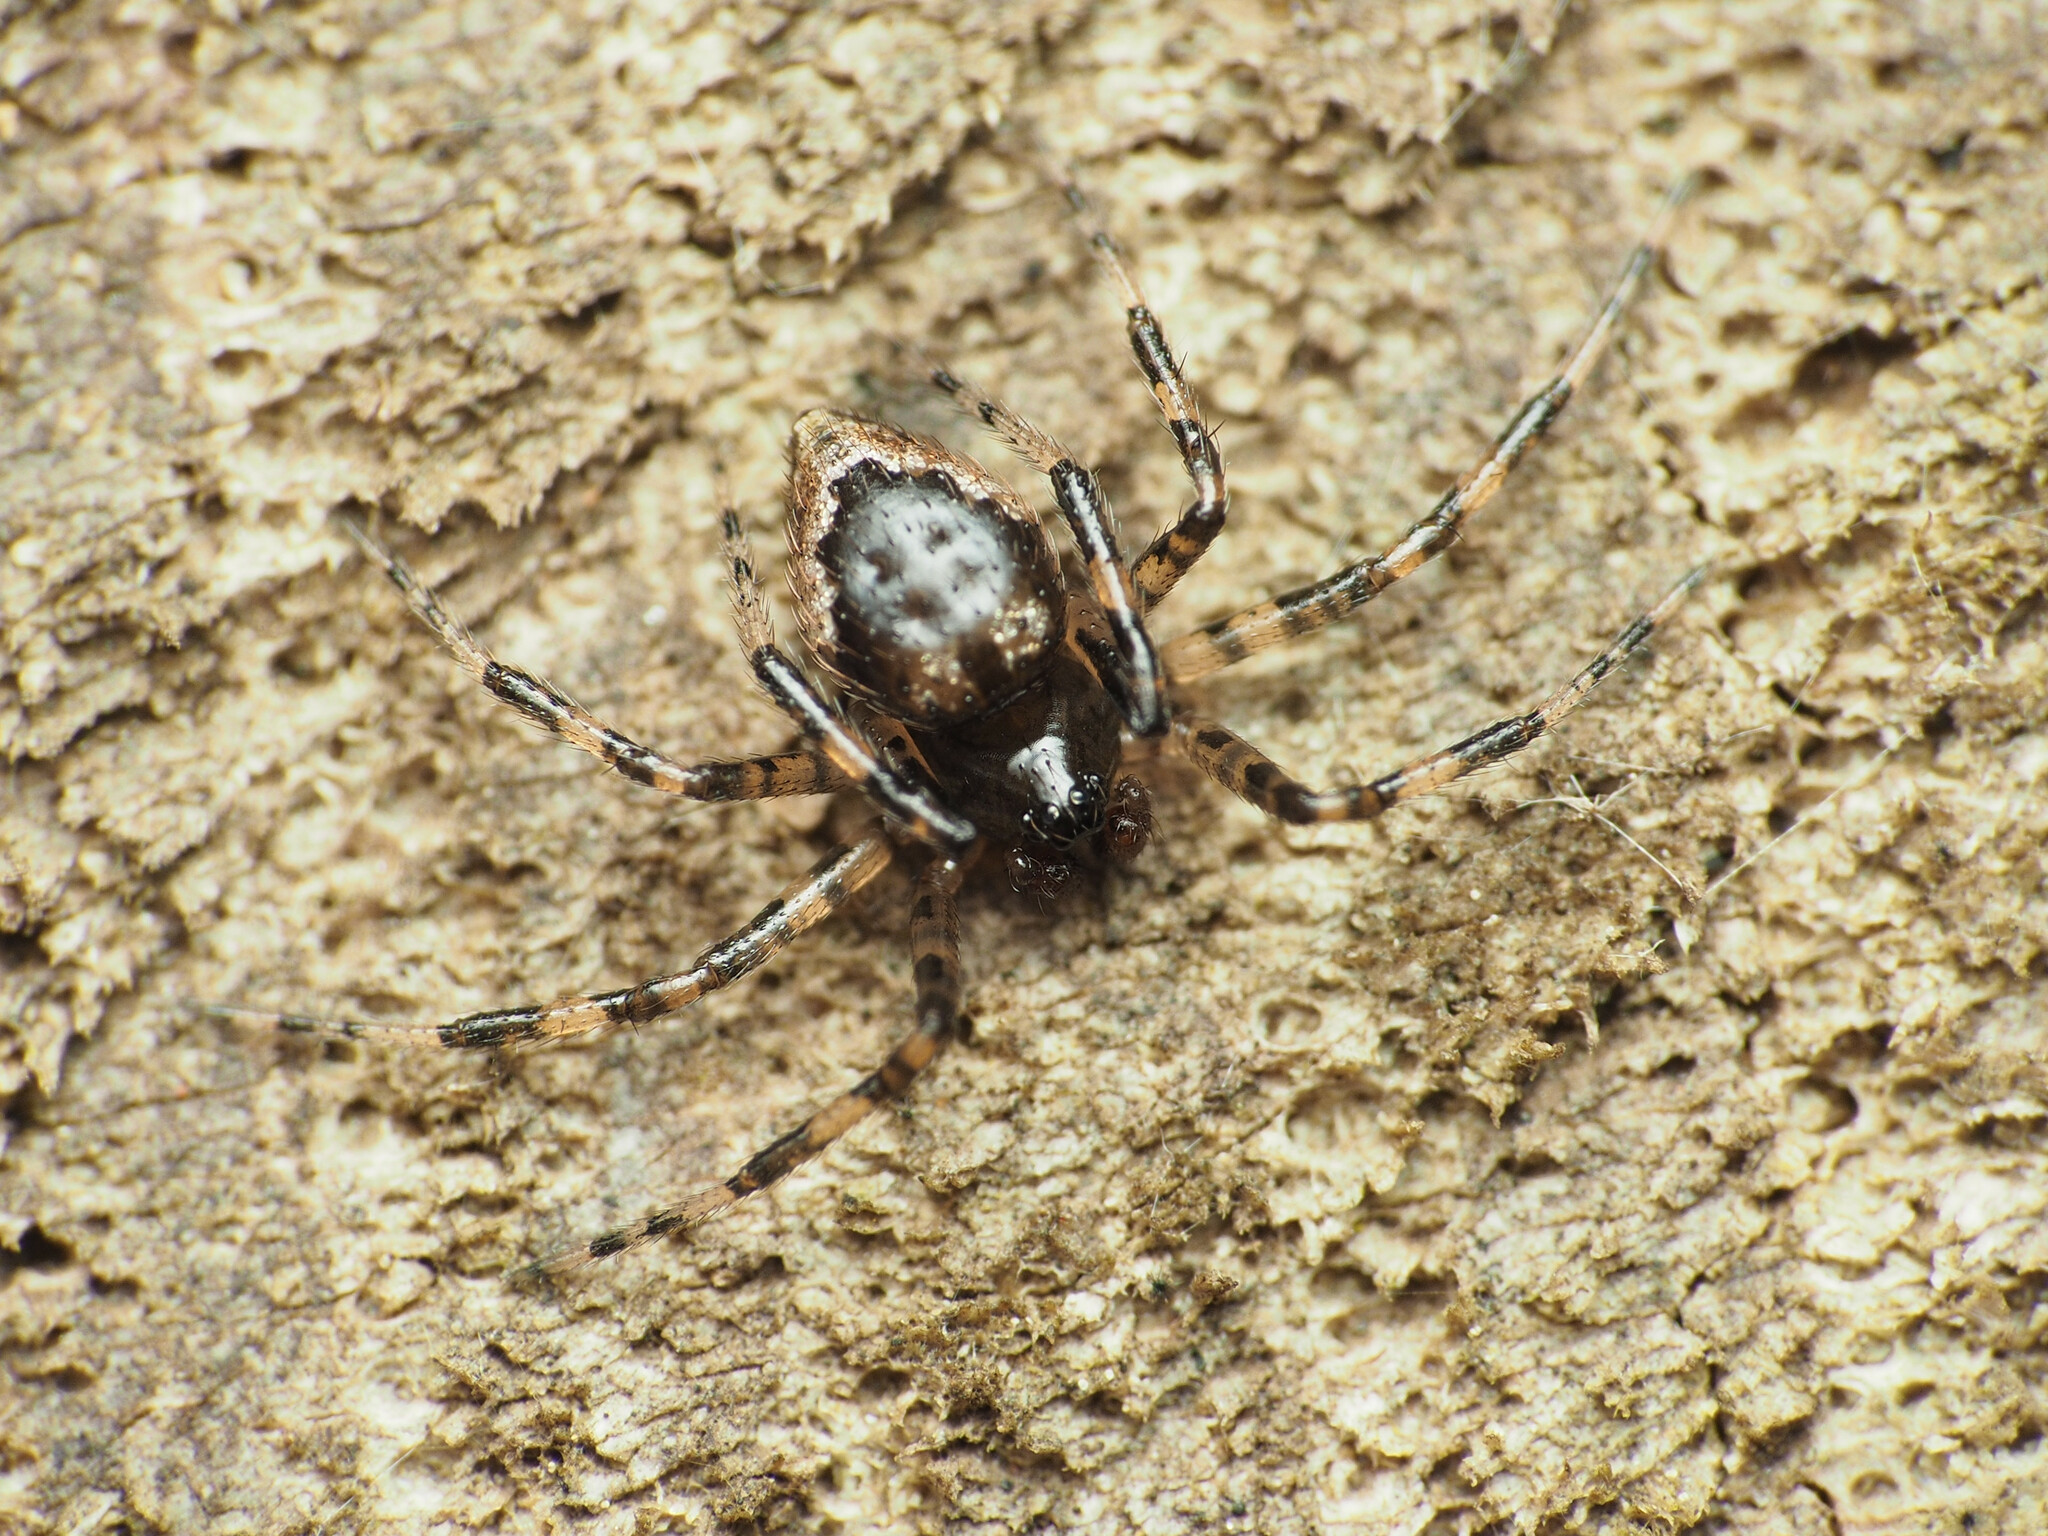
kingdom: Animalia
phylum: Arthropoda
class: Arachnida
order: Araneae
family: Theridiidae
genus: Euryopis
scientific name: Euryopis funebris
